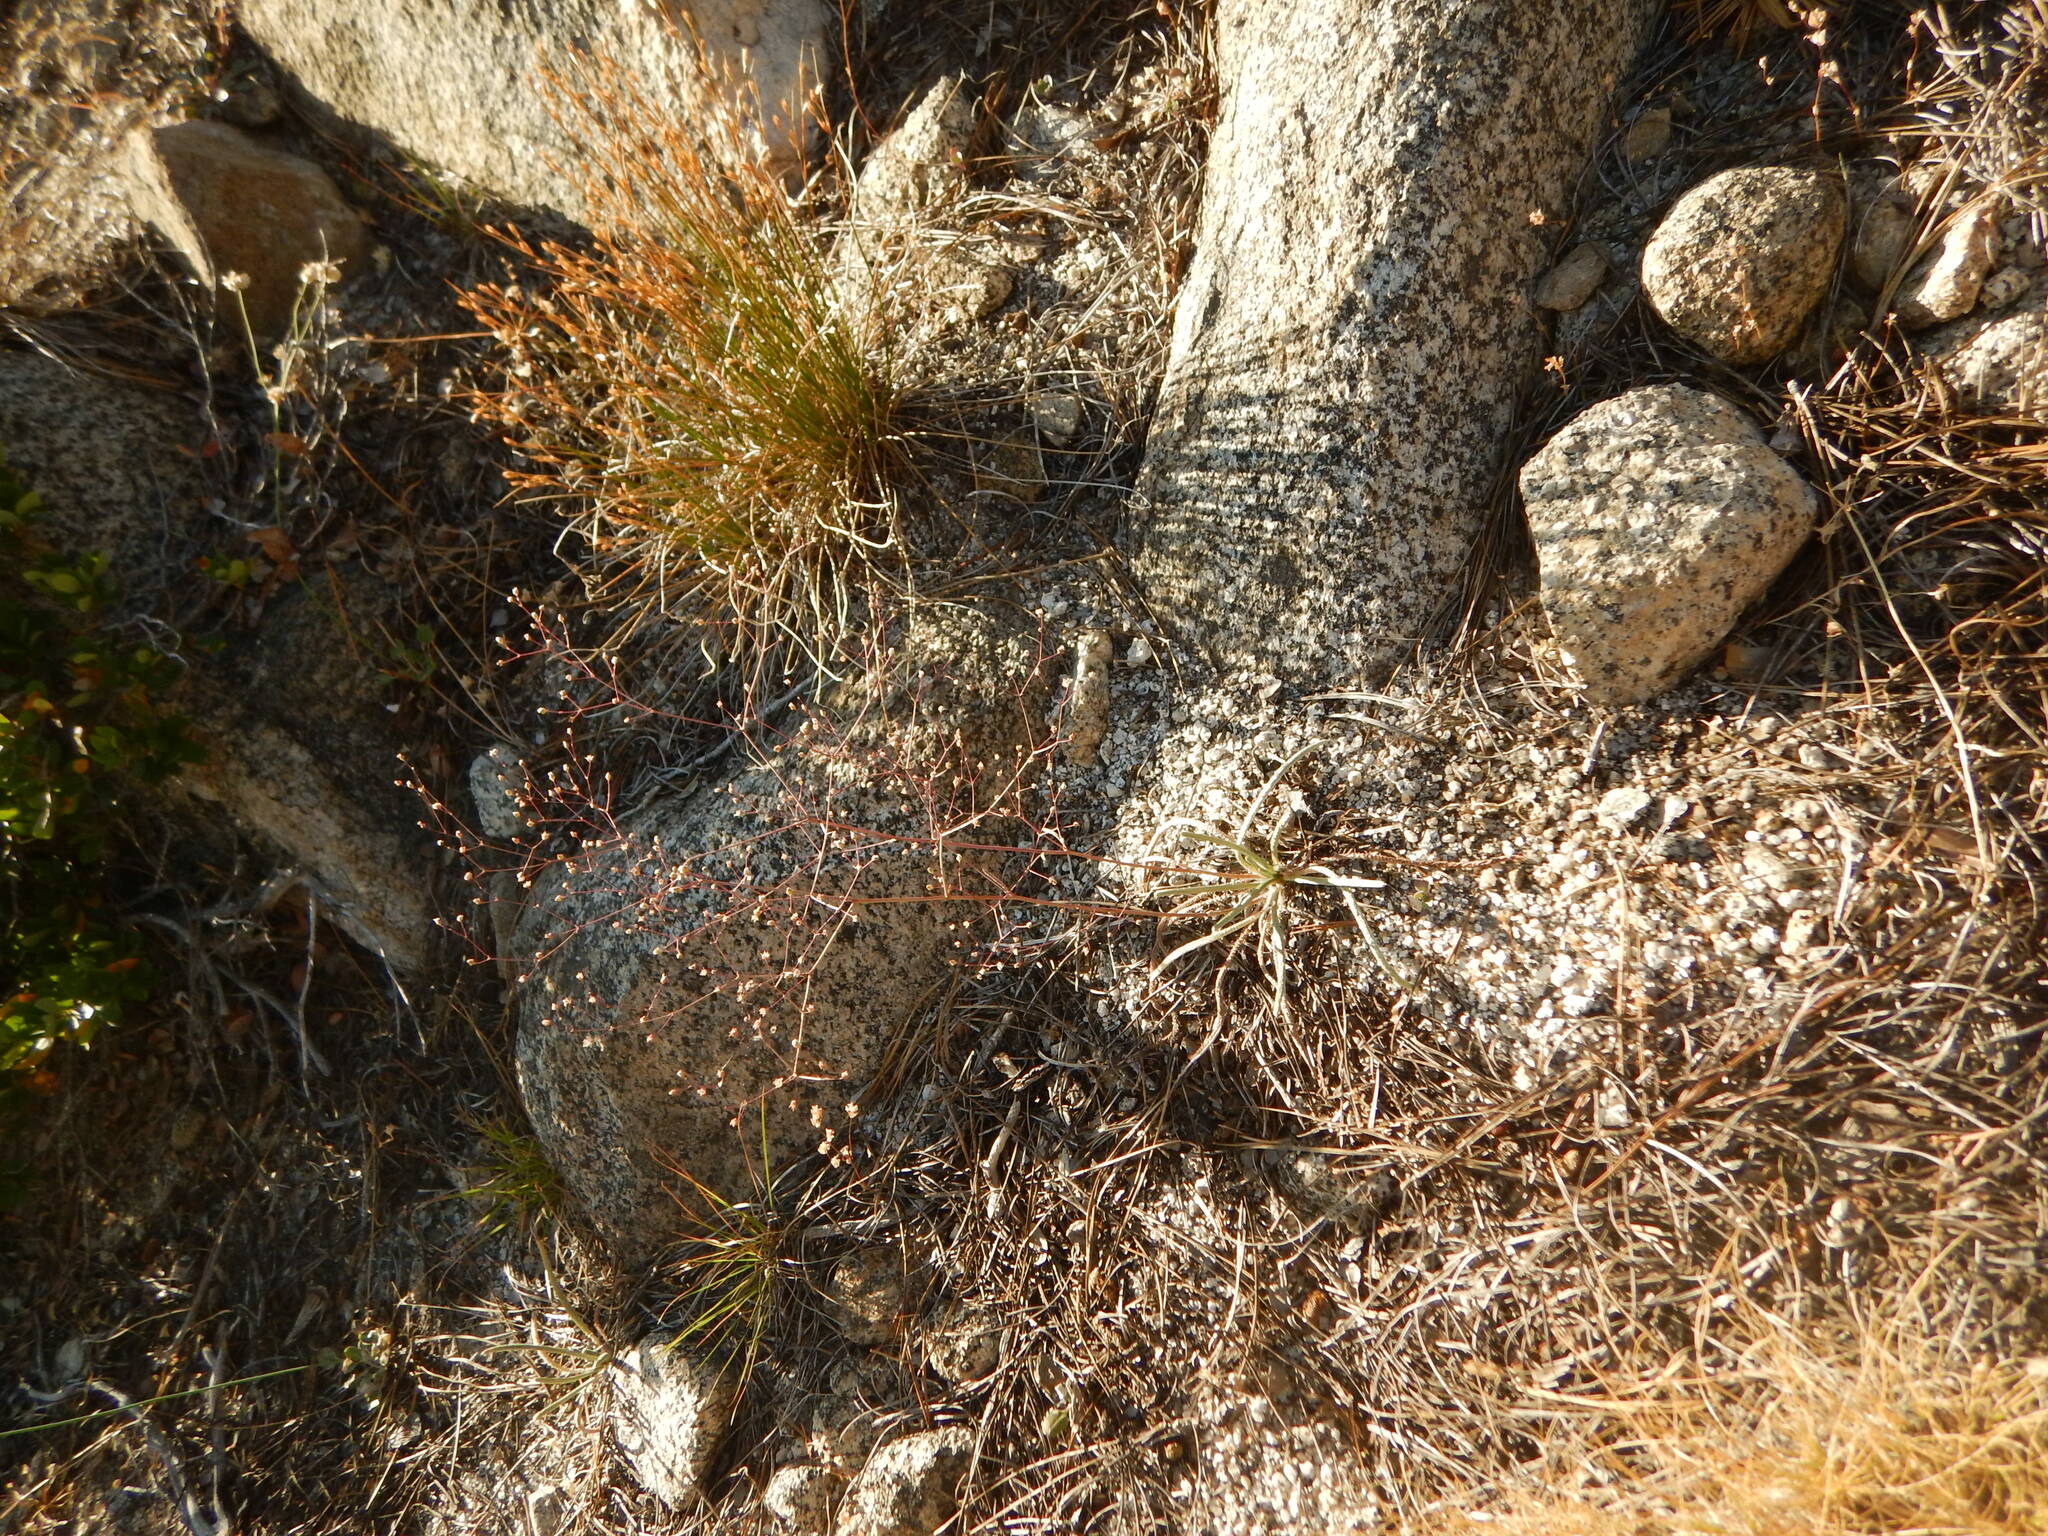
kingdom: Plantae
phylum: Tracheophyta
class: Magnoliopsida
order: Rosales
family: Rosaceae
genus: Potentilla
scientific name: Potentilla santolinoides
